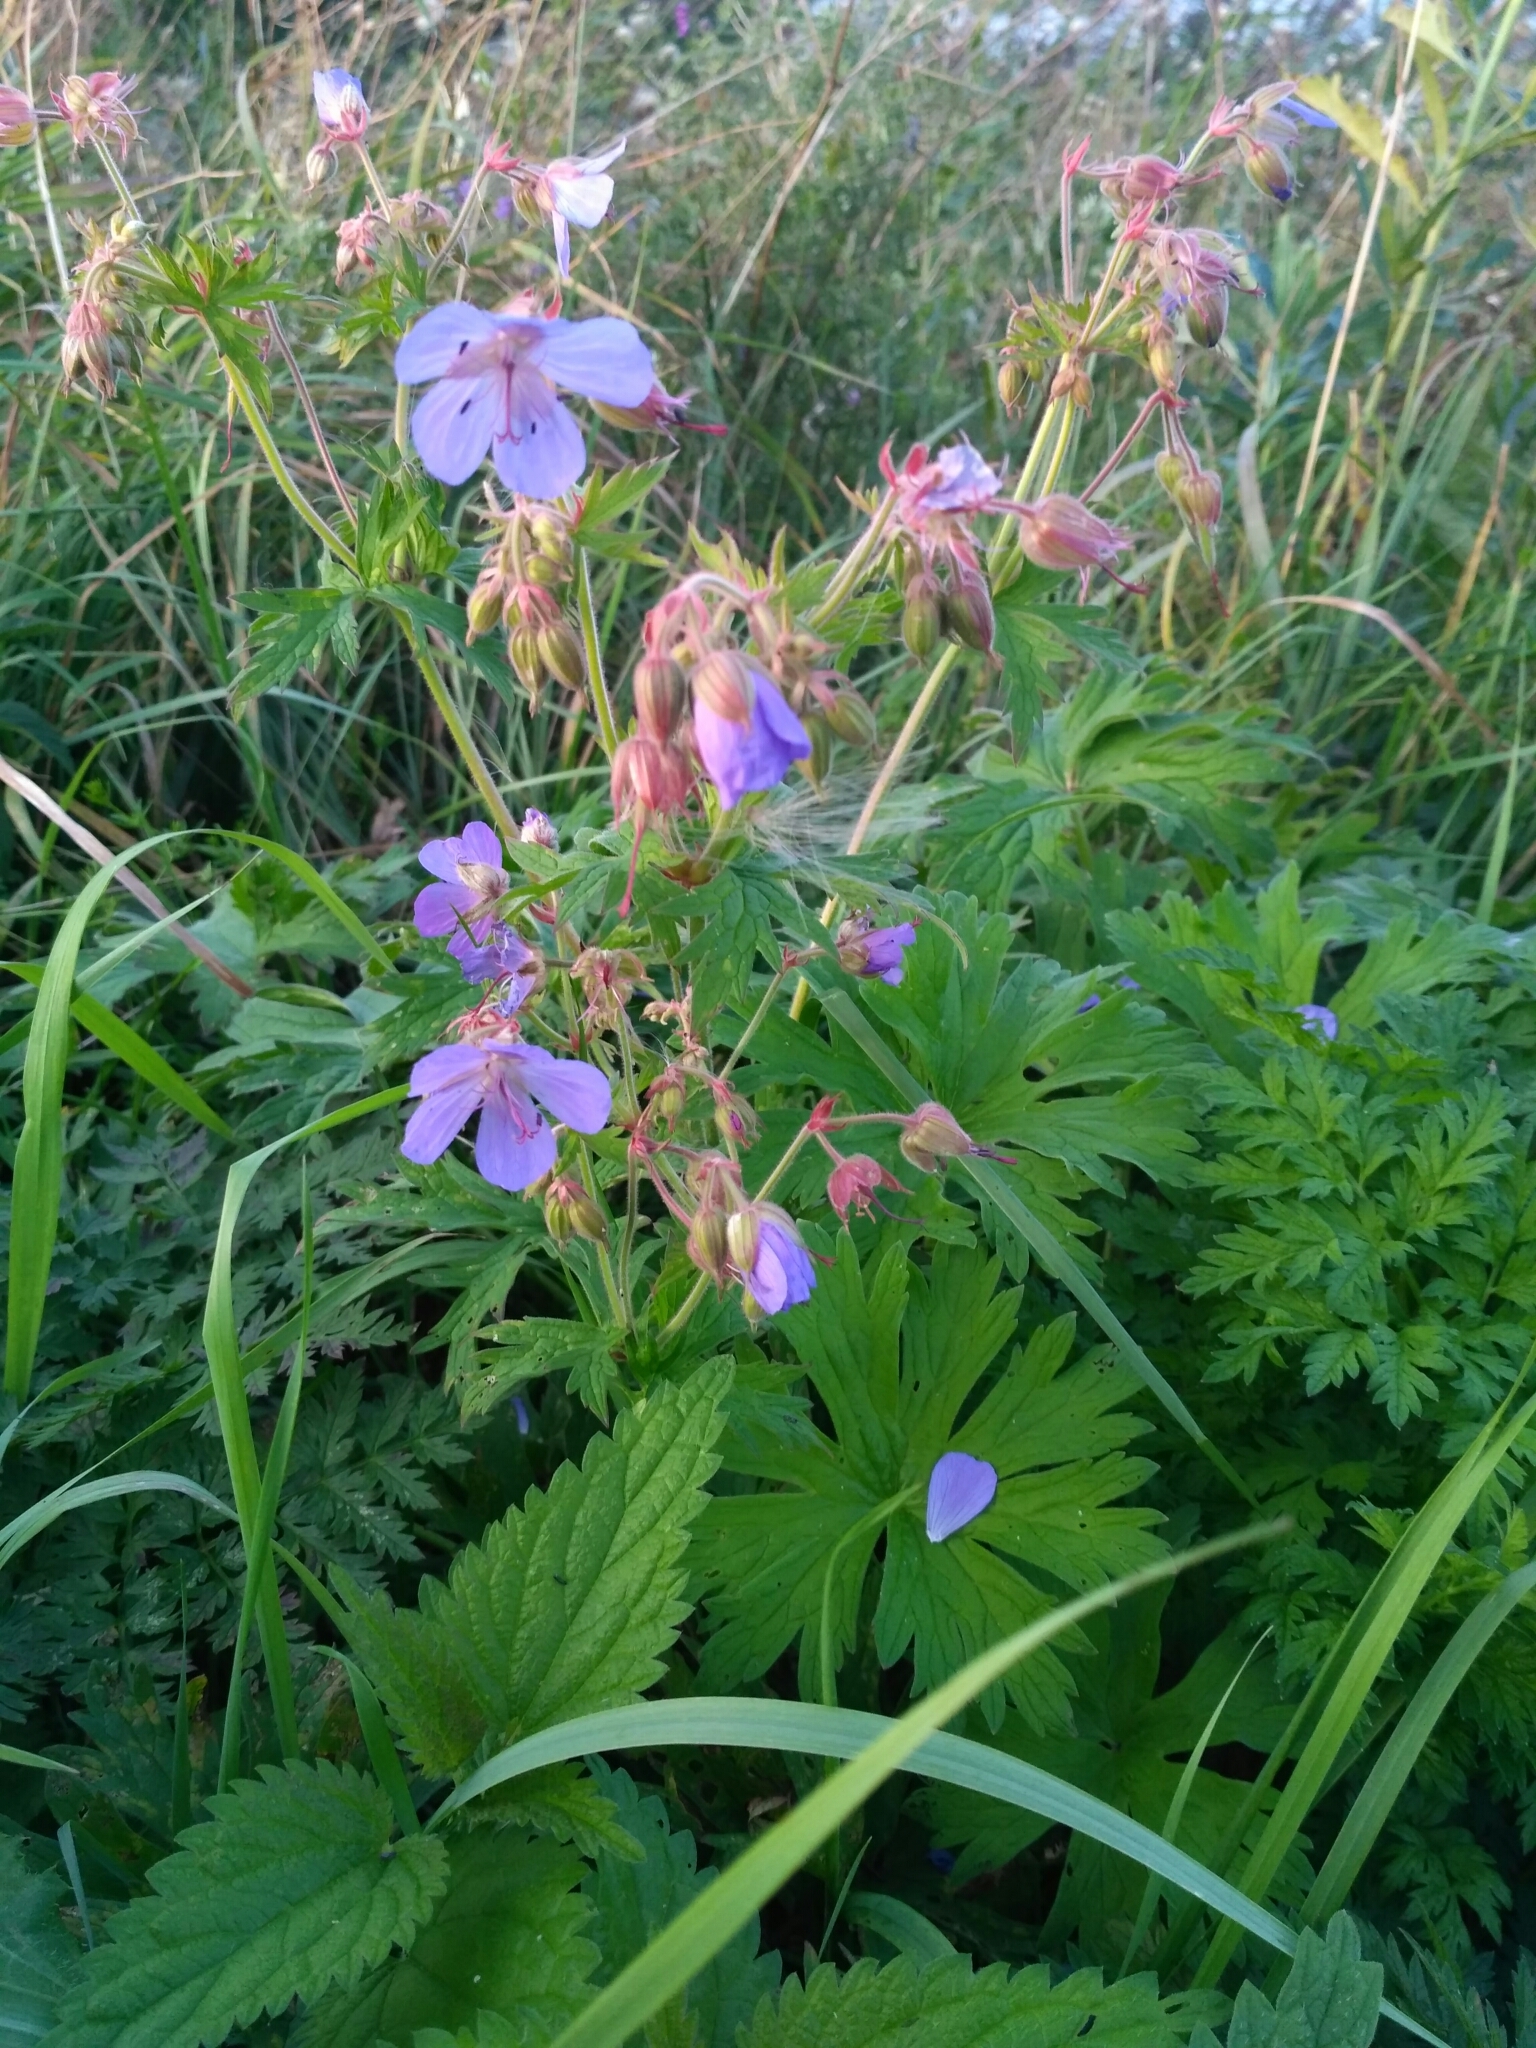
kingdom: Plantae
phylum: Tracheophyta
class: Magnoliopsida
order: Geraniales
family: Geraniaceae
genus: Geranium
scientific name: Geranium pratense
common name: Meadow crane's-bill
